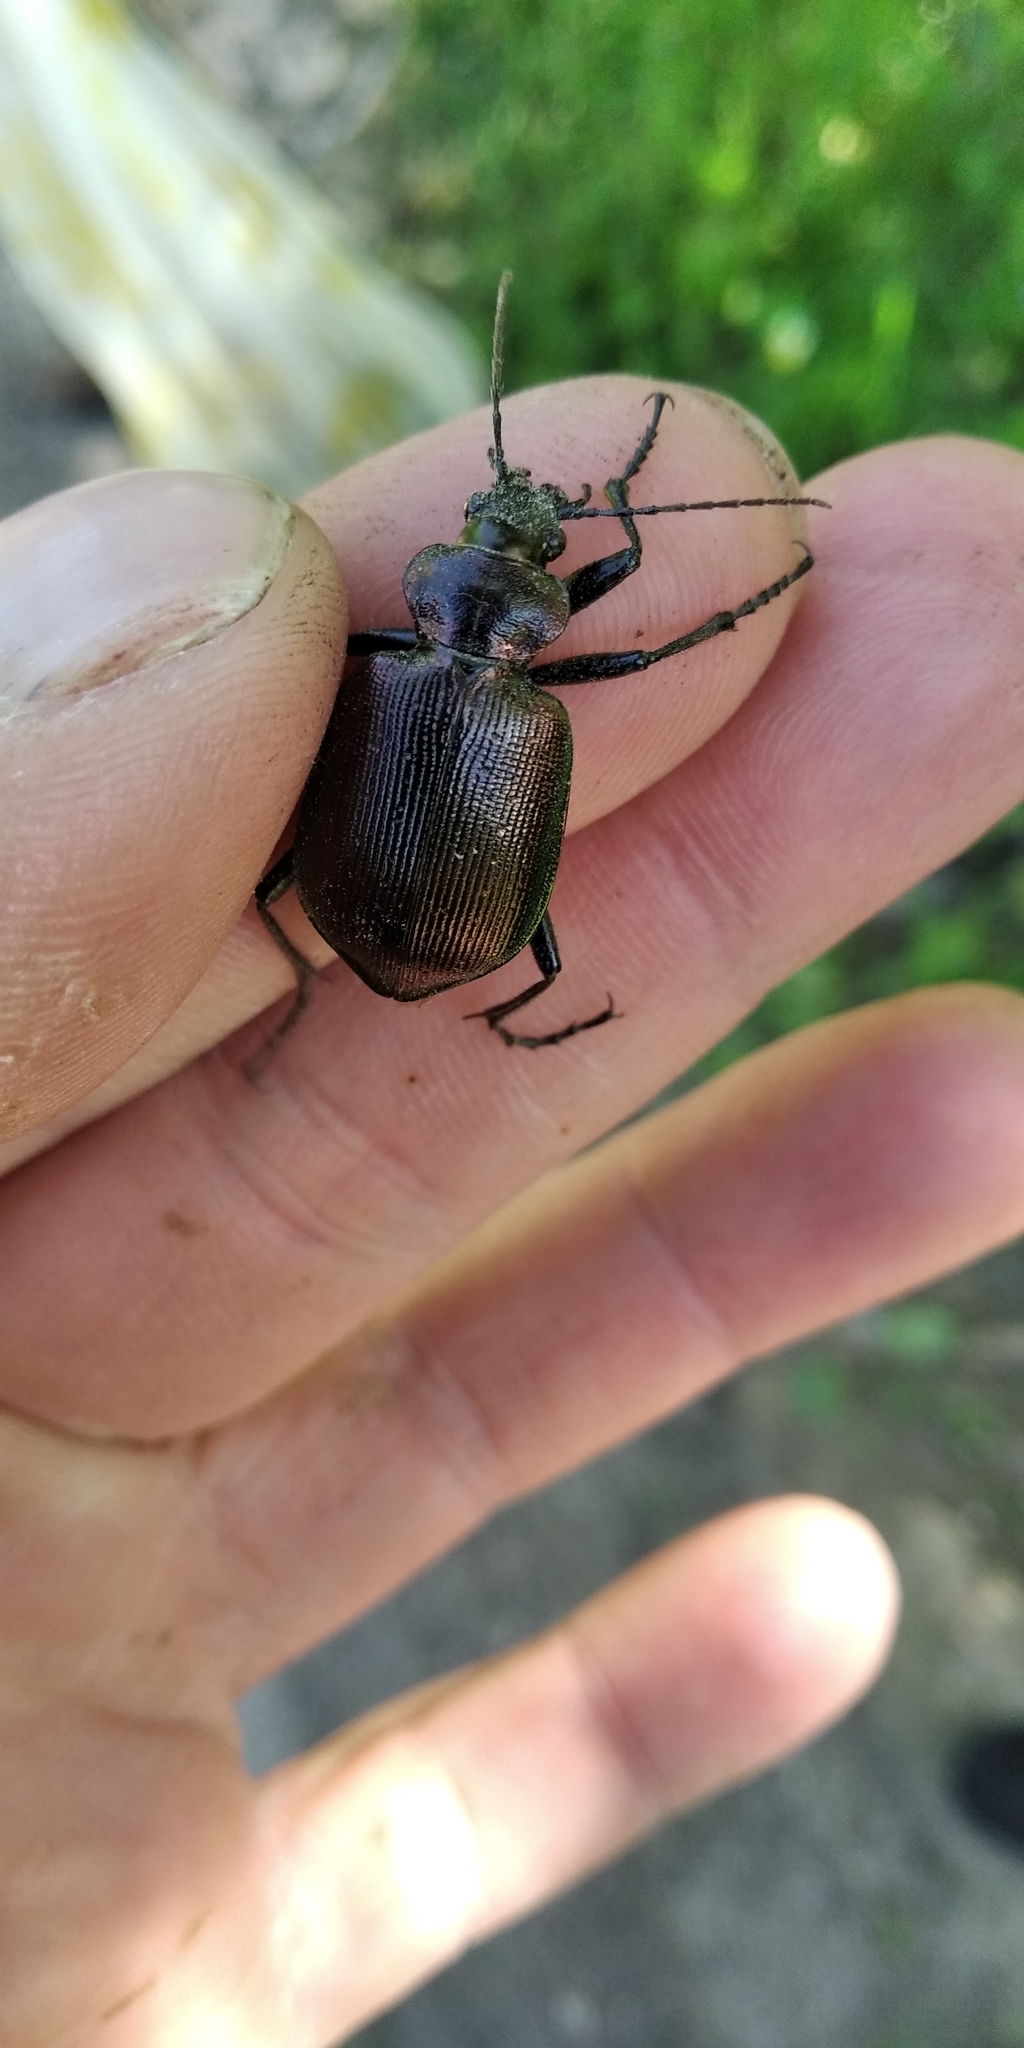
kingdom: Animalia
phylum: Arthropoda
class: Insecta
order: Coleoptera
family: Carabidae
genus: Calosoma
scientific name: Calosoma inquisitor
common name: Caterpillar-hunter
